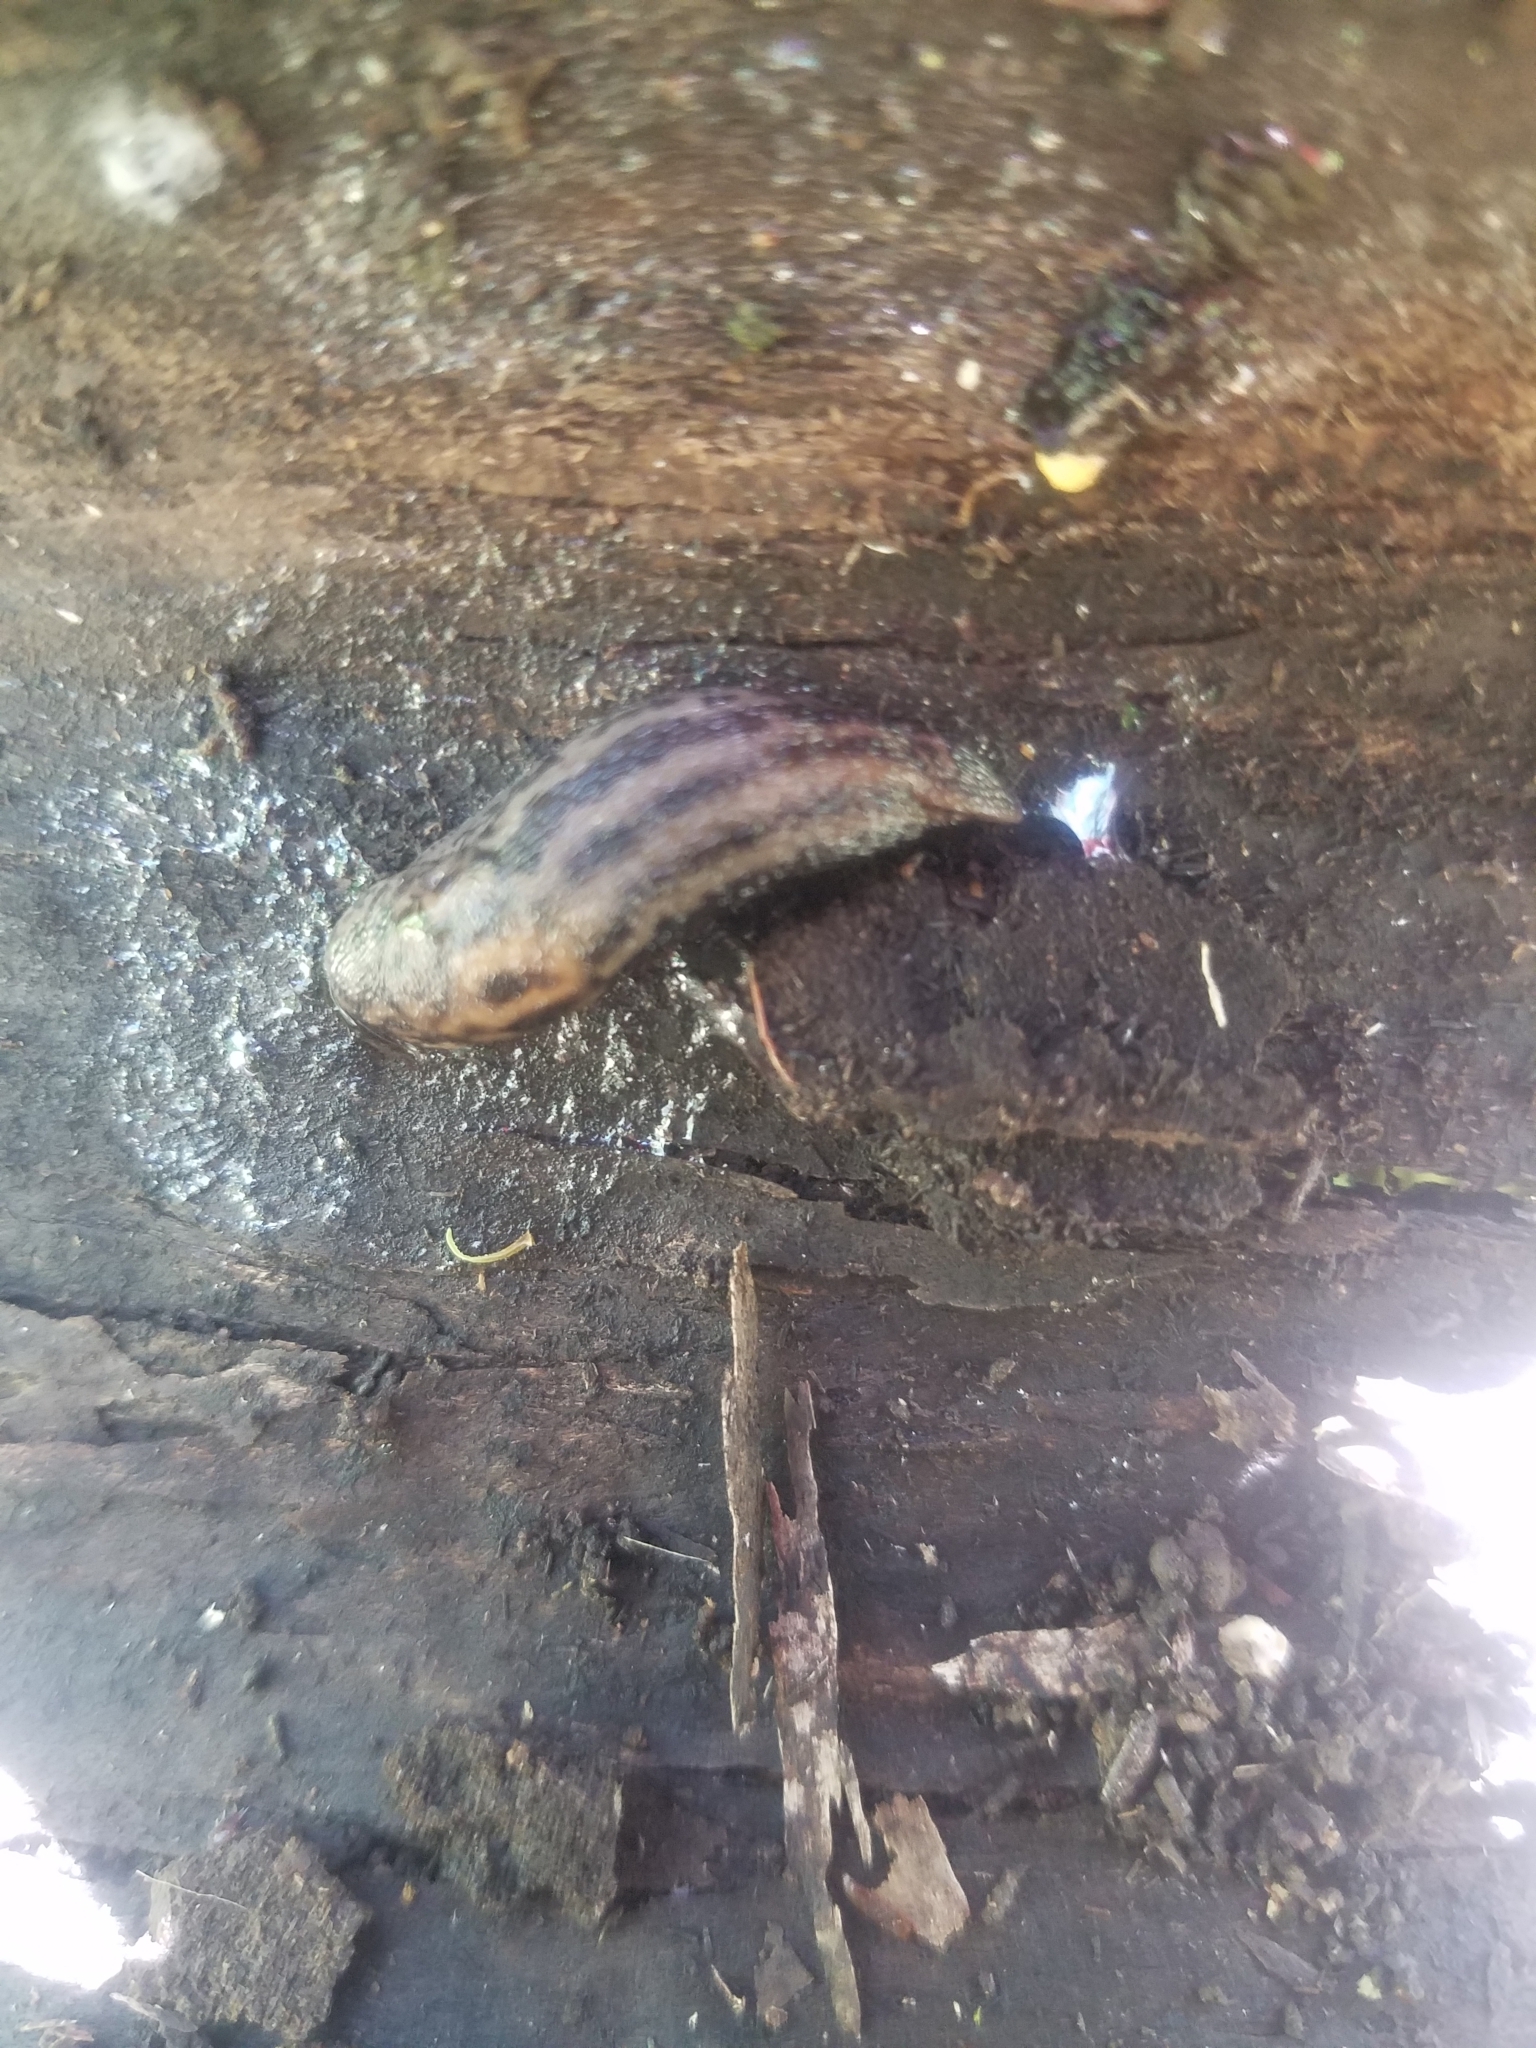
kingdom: Animalia
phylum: Mollusca
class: Gastropoda
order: Stylommatophora
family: Limacidae
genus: Limax
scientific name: Limax maximus
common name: Great grey slug
